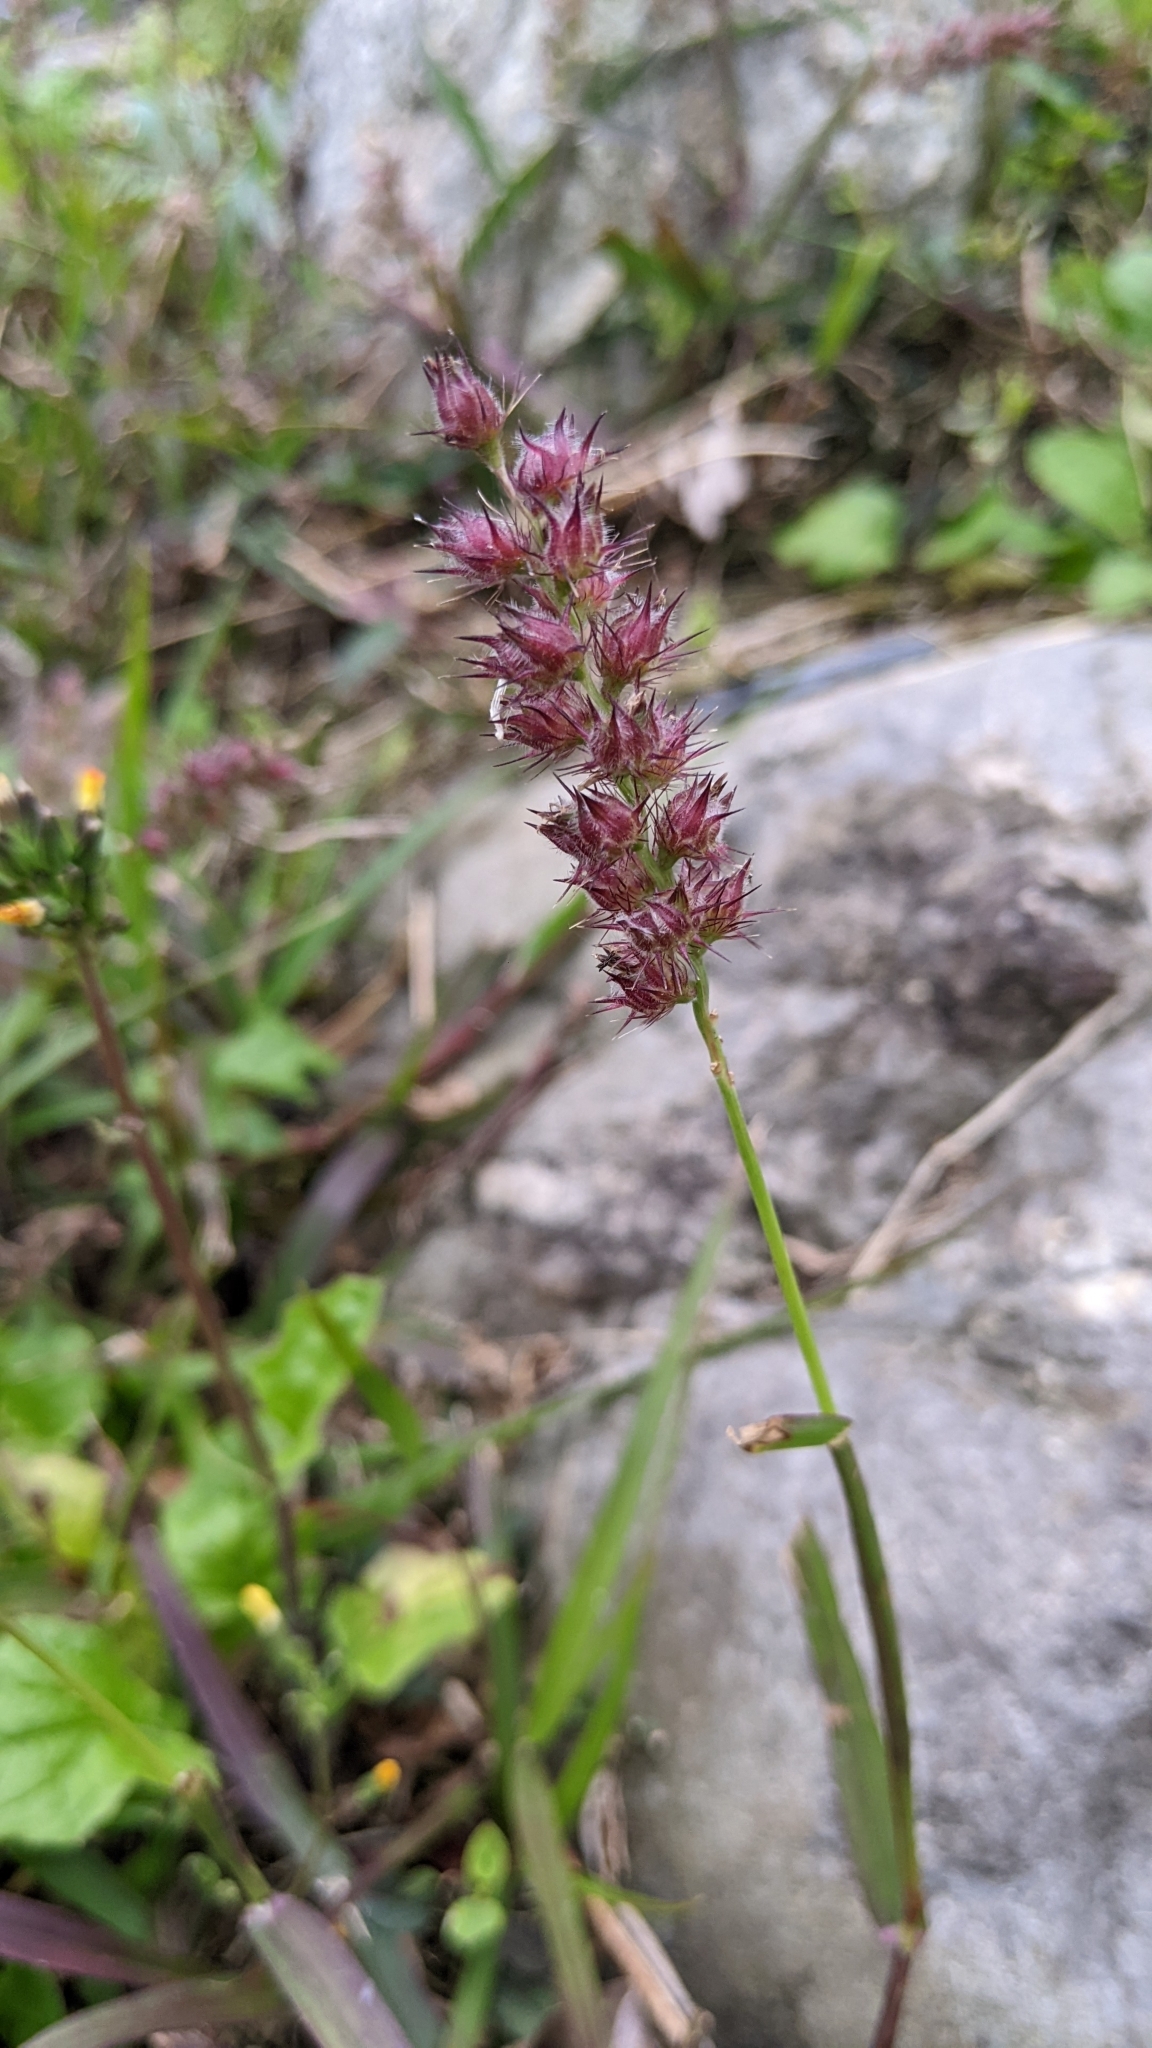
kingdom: Plantae
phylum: Tracheophyta
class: Liliopsida
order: Poales
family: Poaceae
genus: Cenchrus
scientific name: Cenchrus echinatus
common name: Southern sandbur
